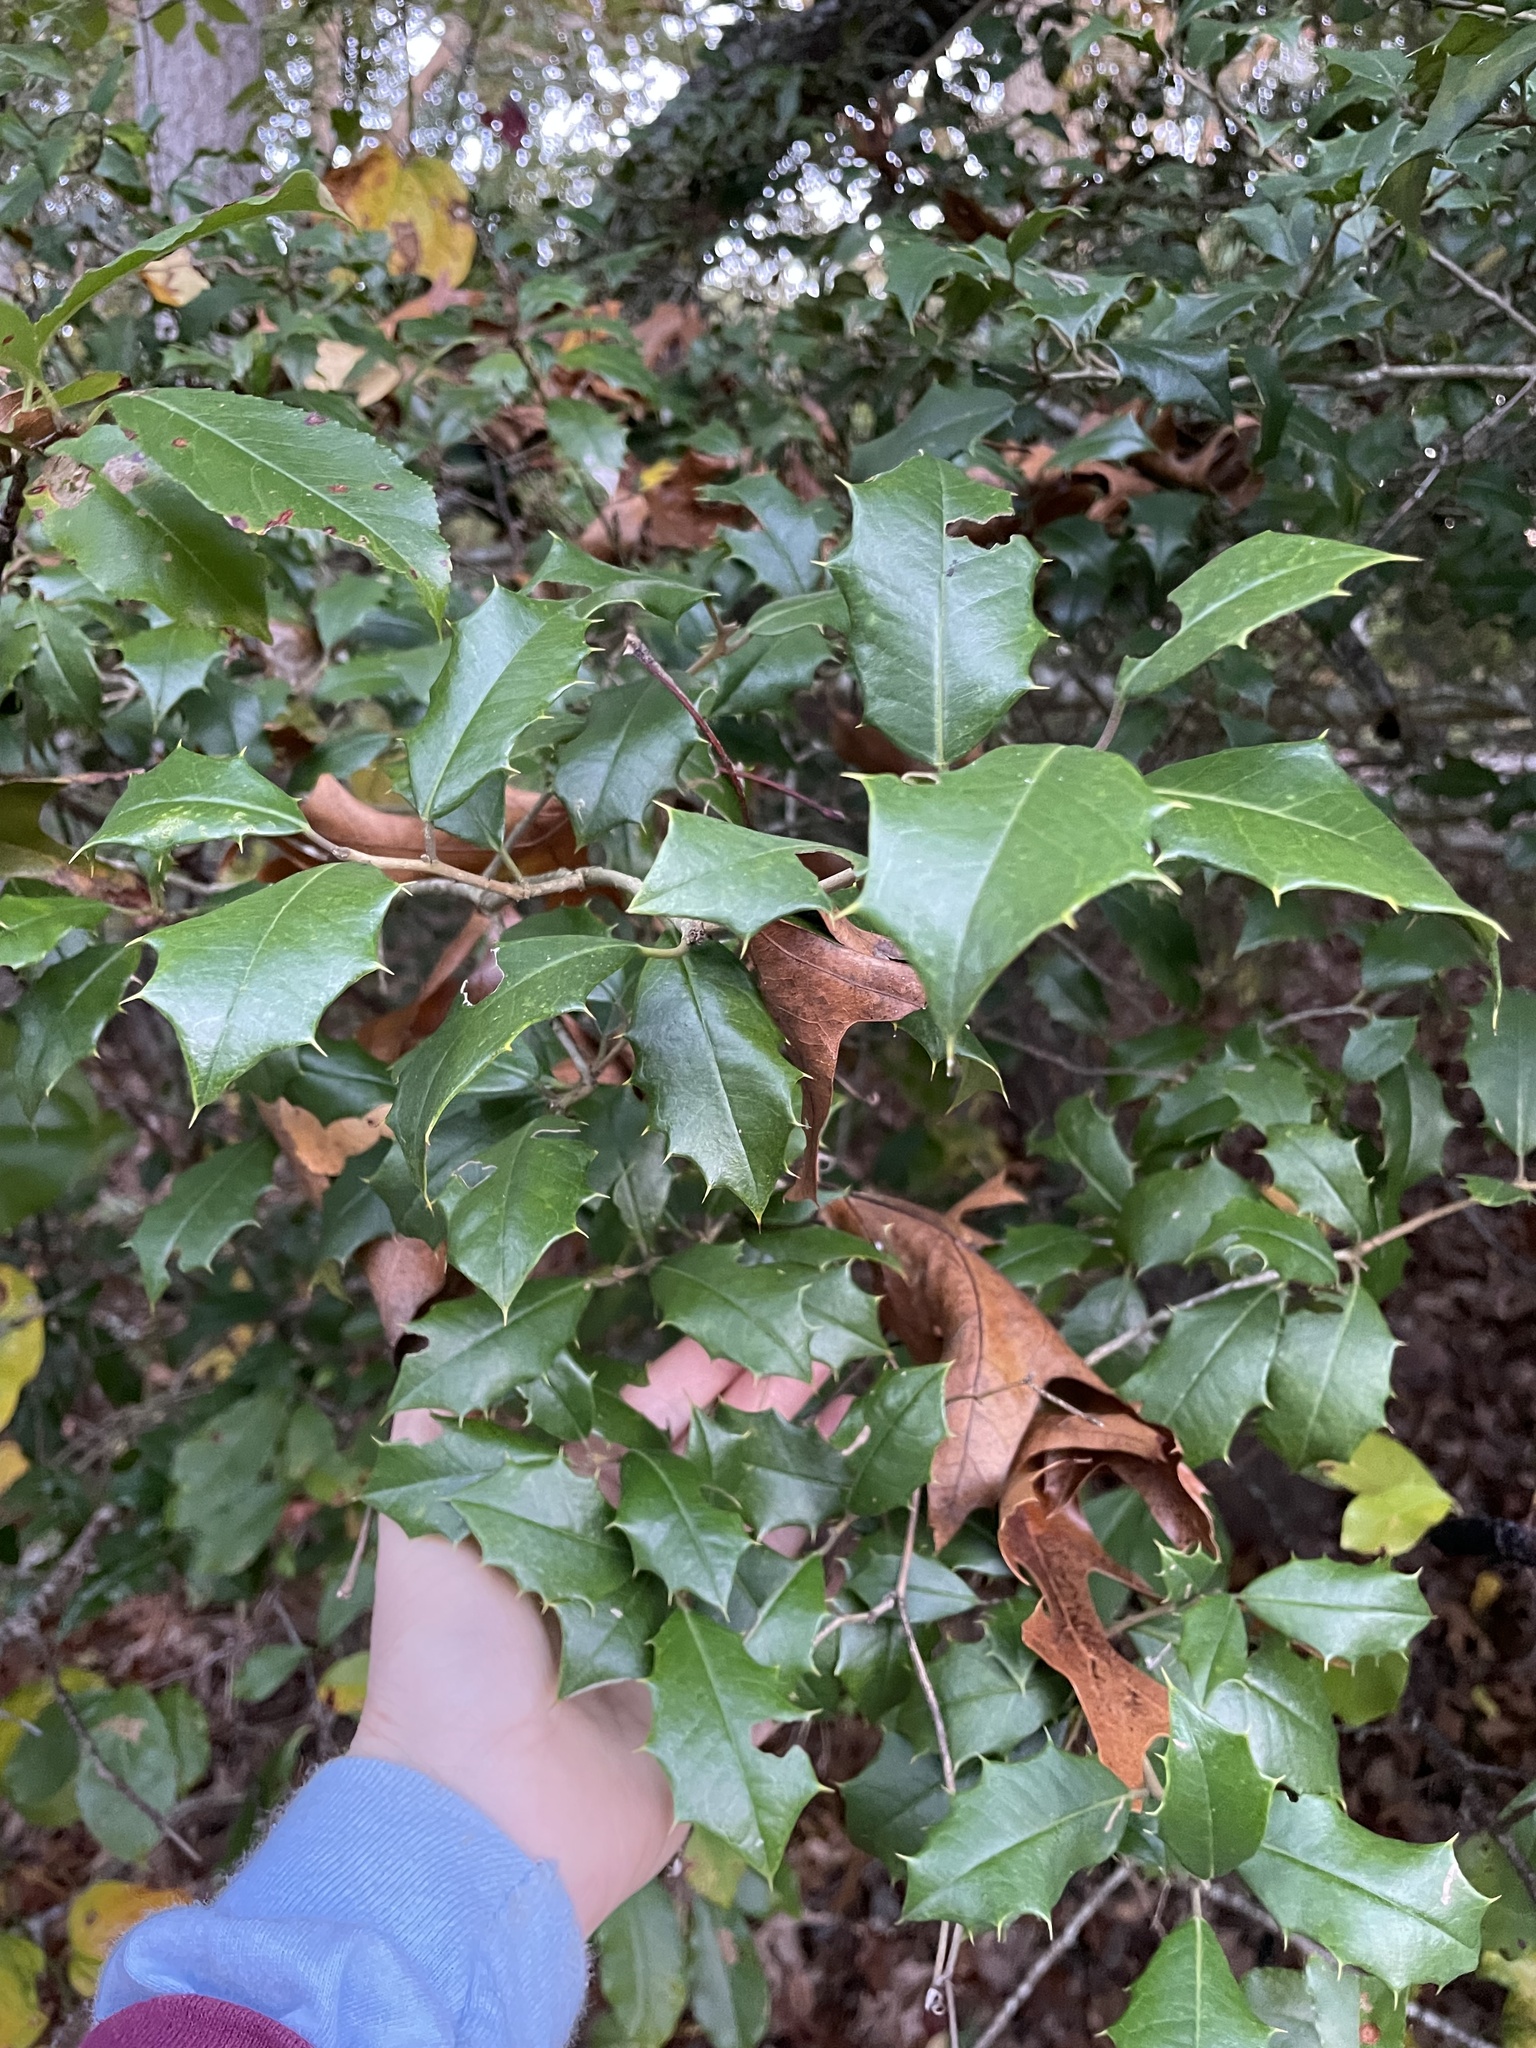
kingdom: Plantae
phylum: Tracheophyta
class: Magnoliopsida
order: Aquifoliales
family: Aquifoliaceae
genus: Ilex
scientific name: Ilex opaca
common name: American holly
